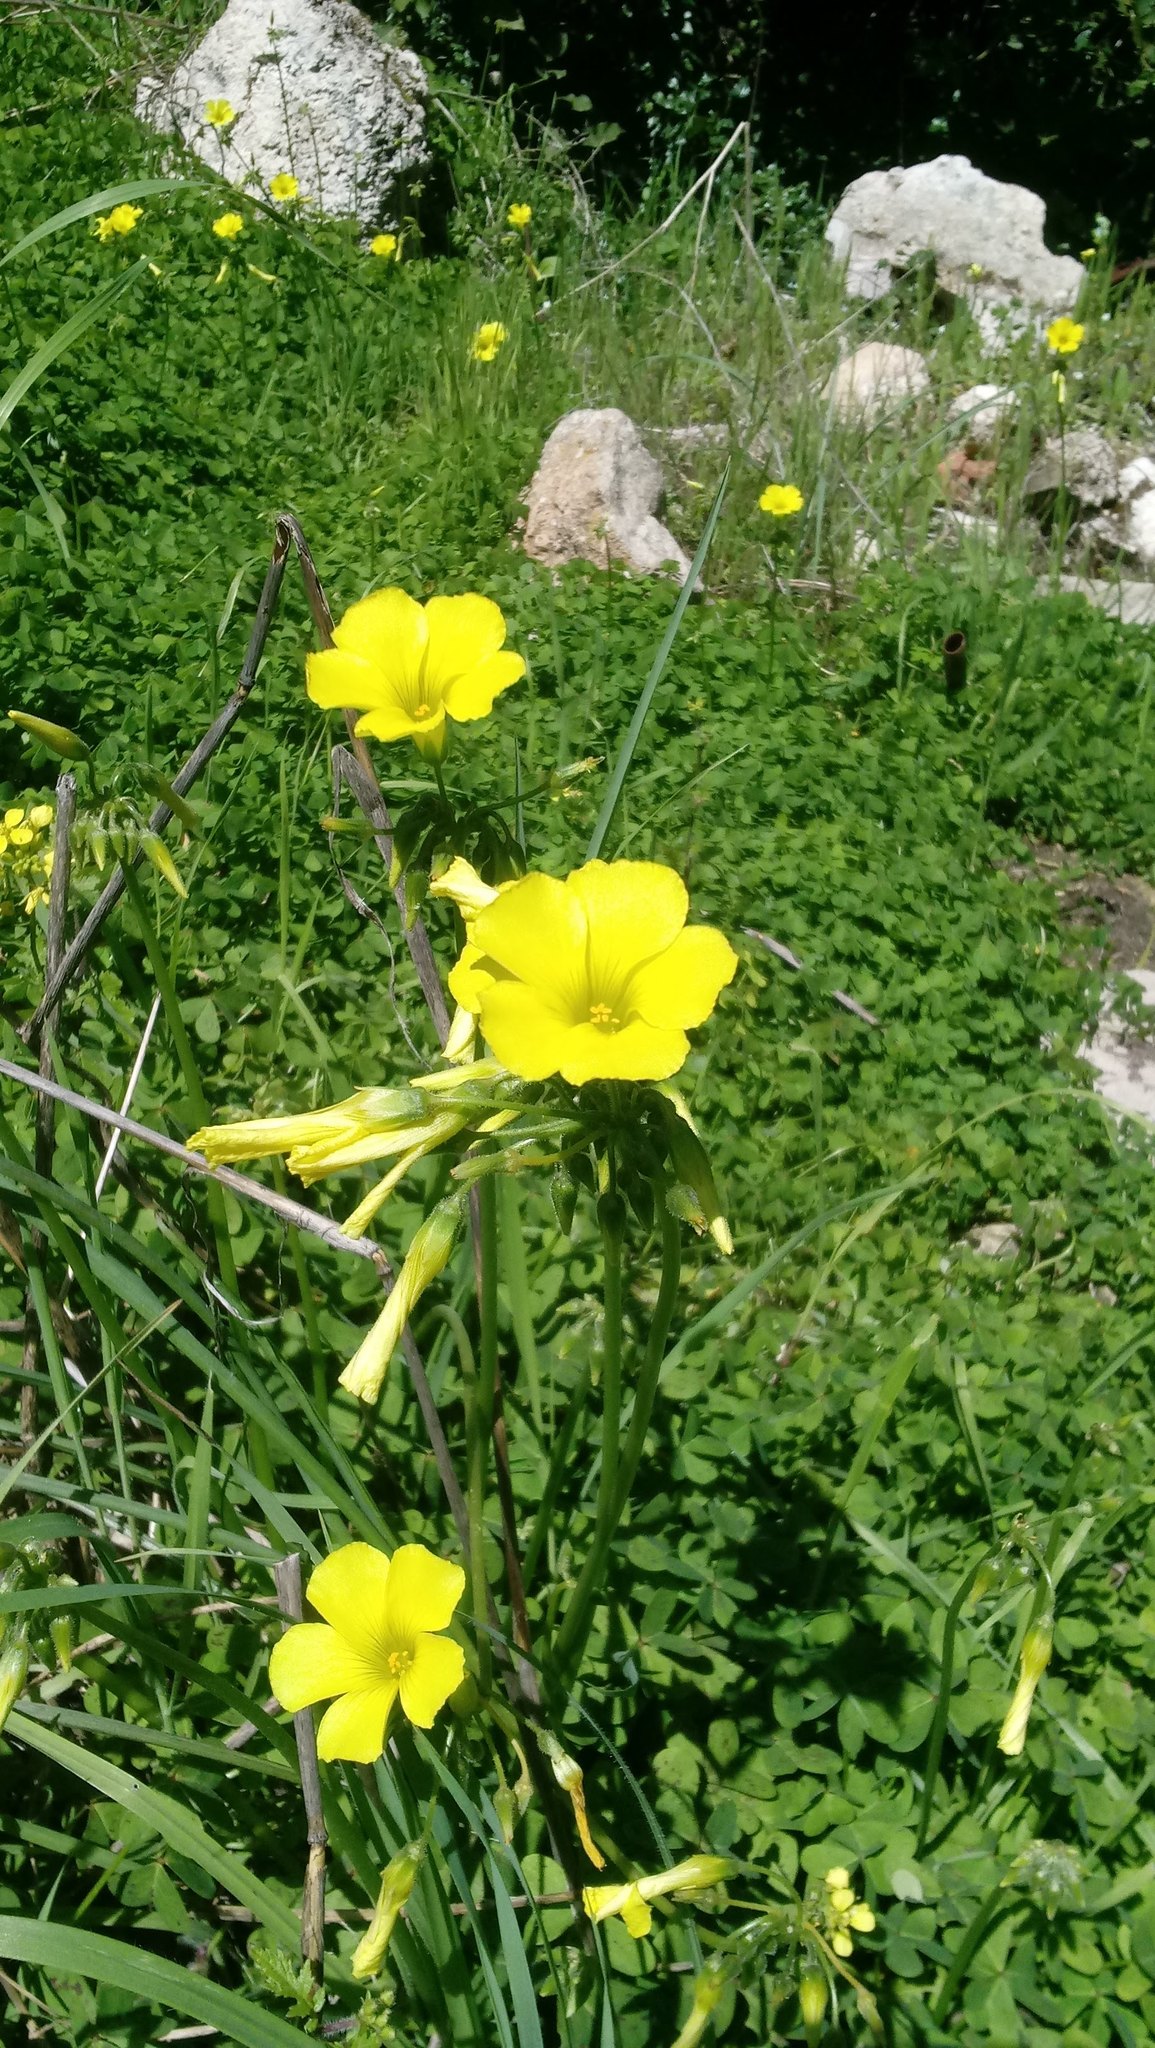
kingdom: Plantae
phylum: Tracheophyta
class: Magnoliopsida
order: Oxalidales
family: Oxalidaceae
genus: Oxalis
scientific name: Oxalis pes-caprae
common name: Bermuda-buttercup
